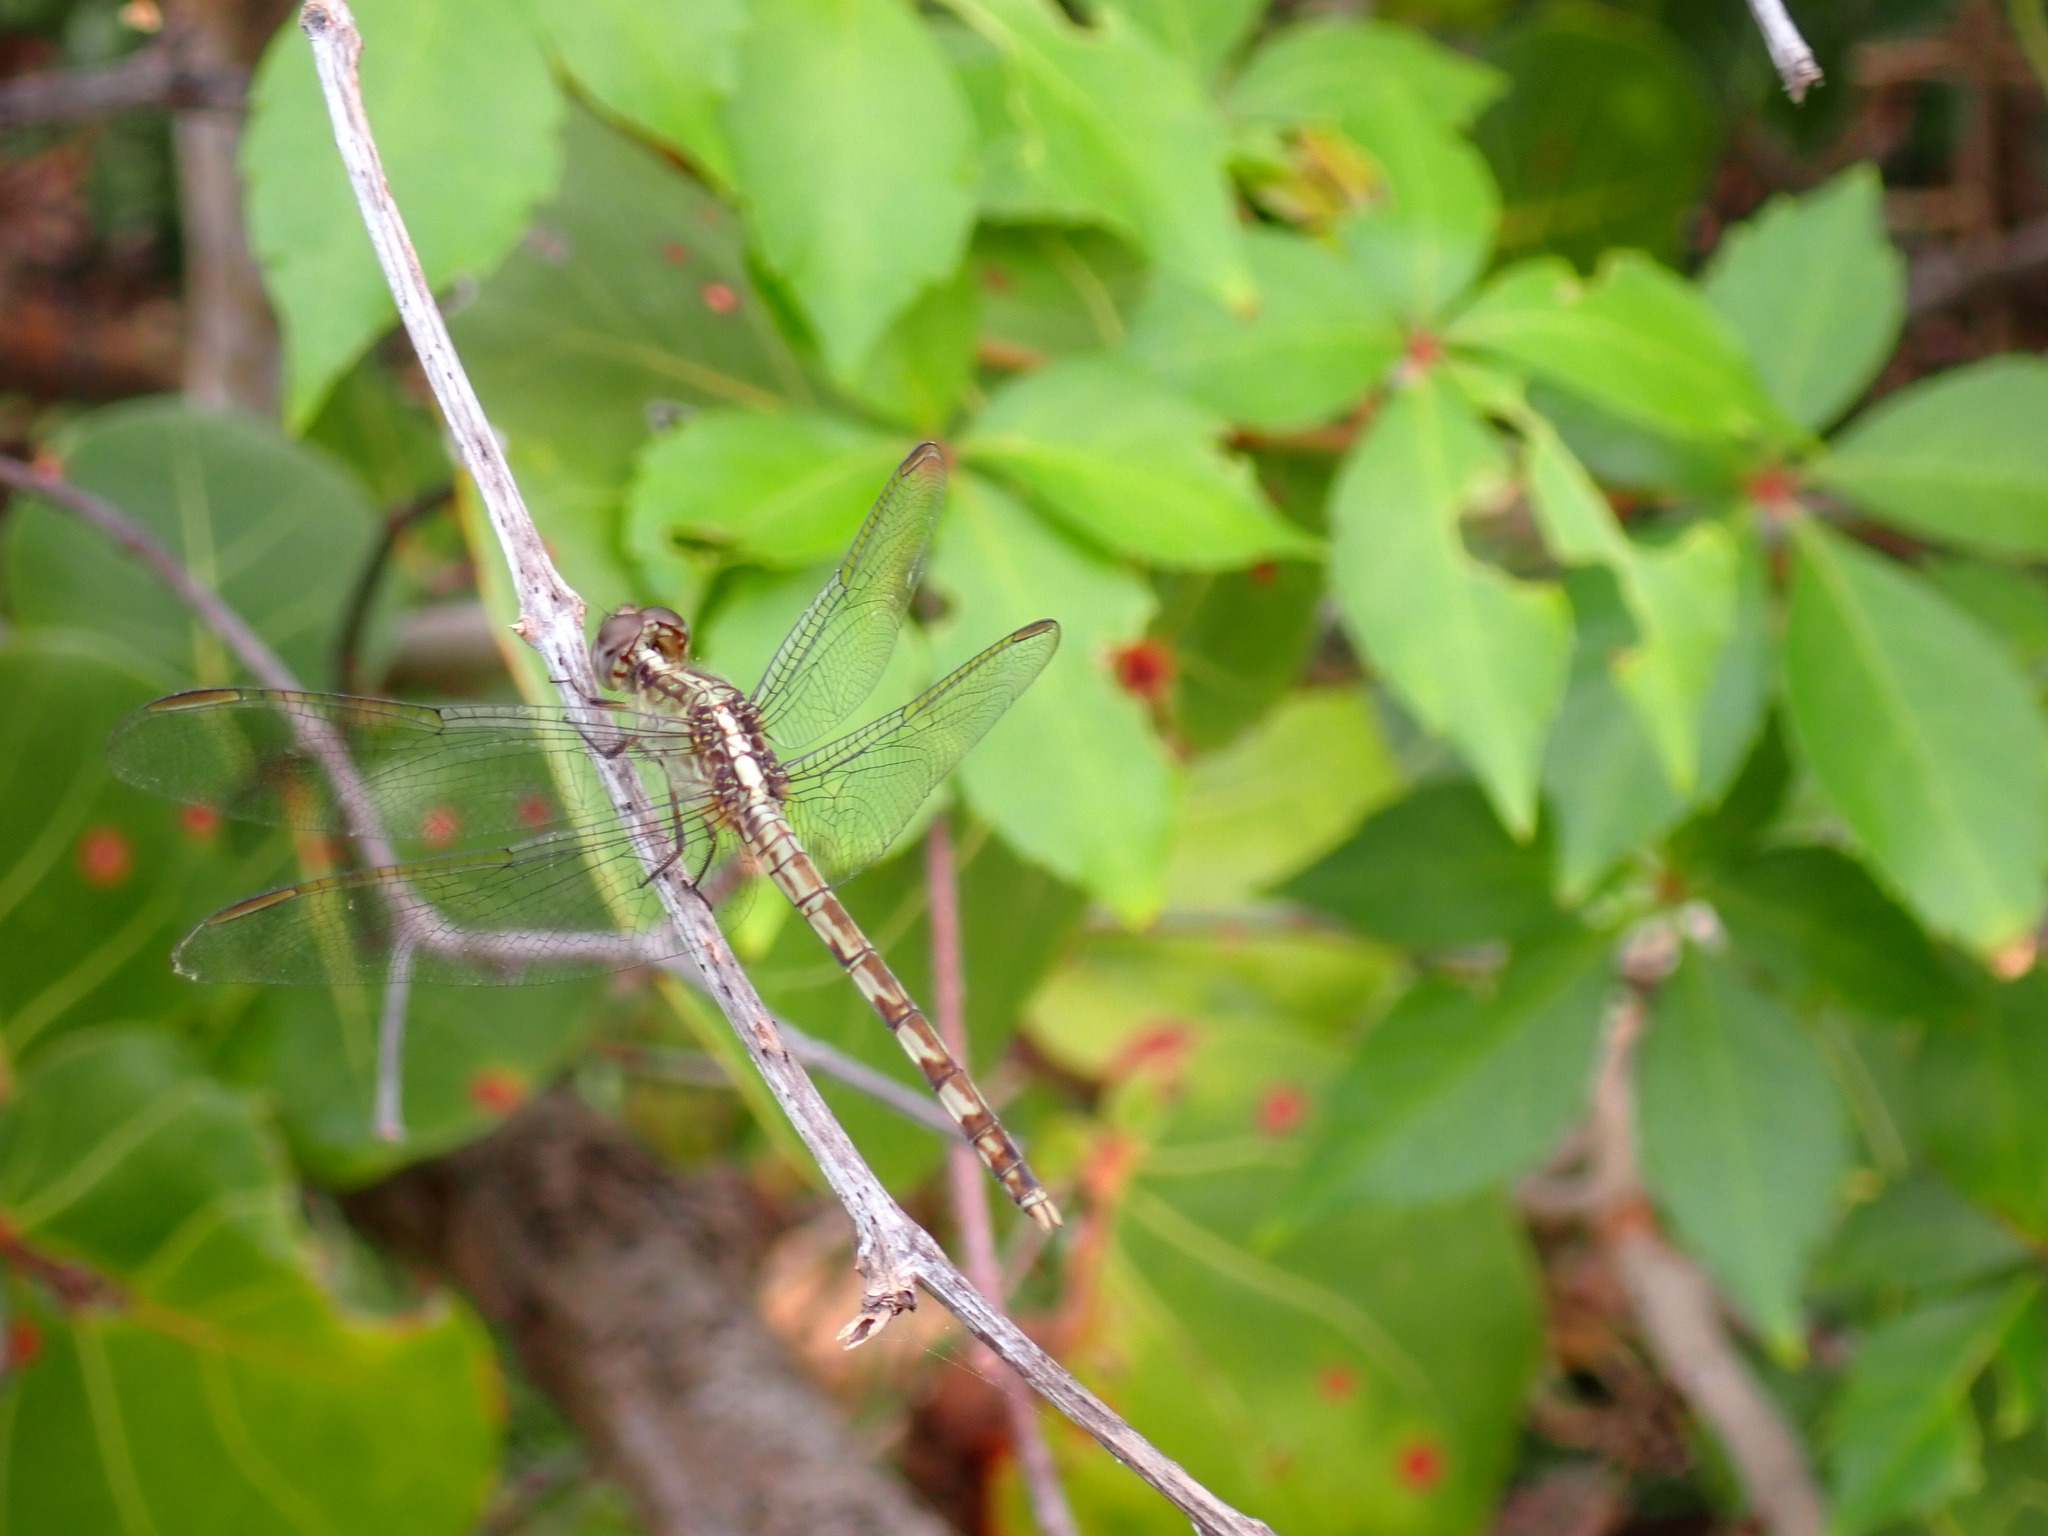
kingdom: Animalia
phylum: Arthropoda
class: Insecta
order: Odonata
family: Libellulidae
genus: Erythrodiplax
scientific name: Erythrodiplax umbrata
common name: Band-winged dragonlet
